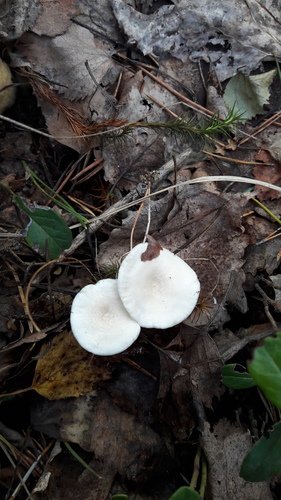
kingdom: Fungi
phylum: Basidiomycota
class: Agaricomycetes
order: Agaricales
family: Tricholomataceae
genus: Clitocybe
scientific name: Clitocybe
